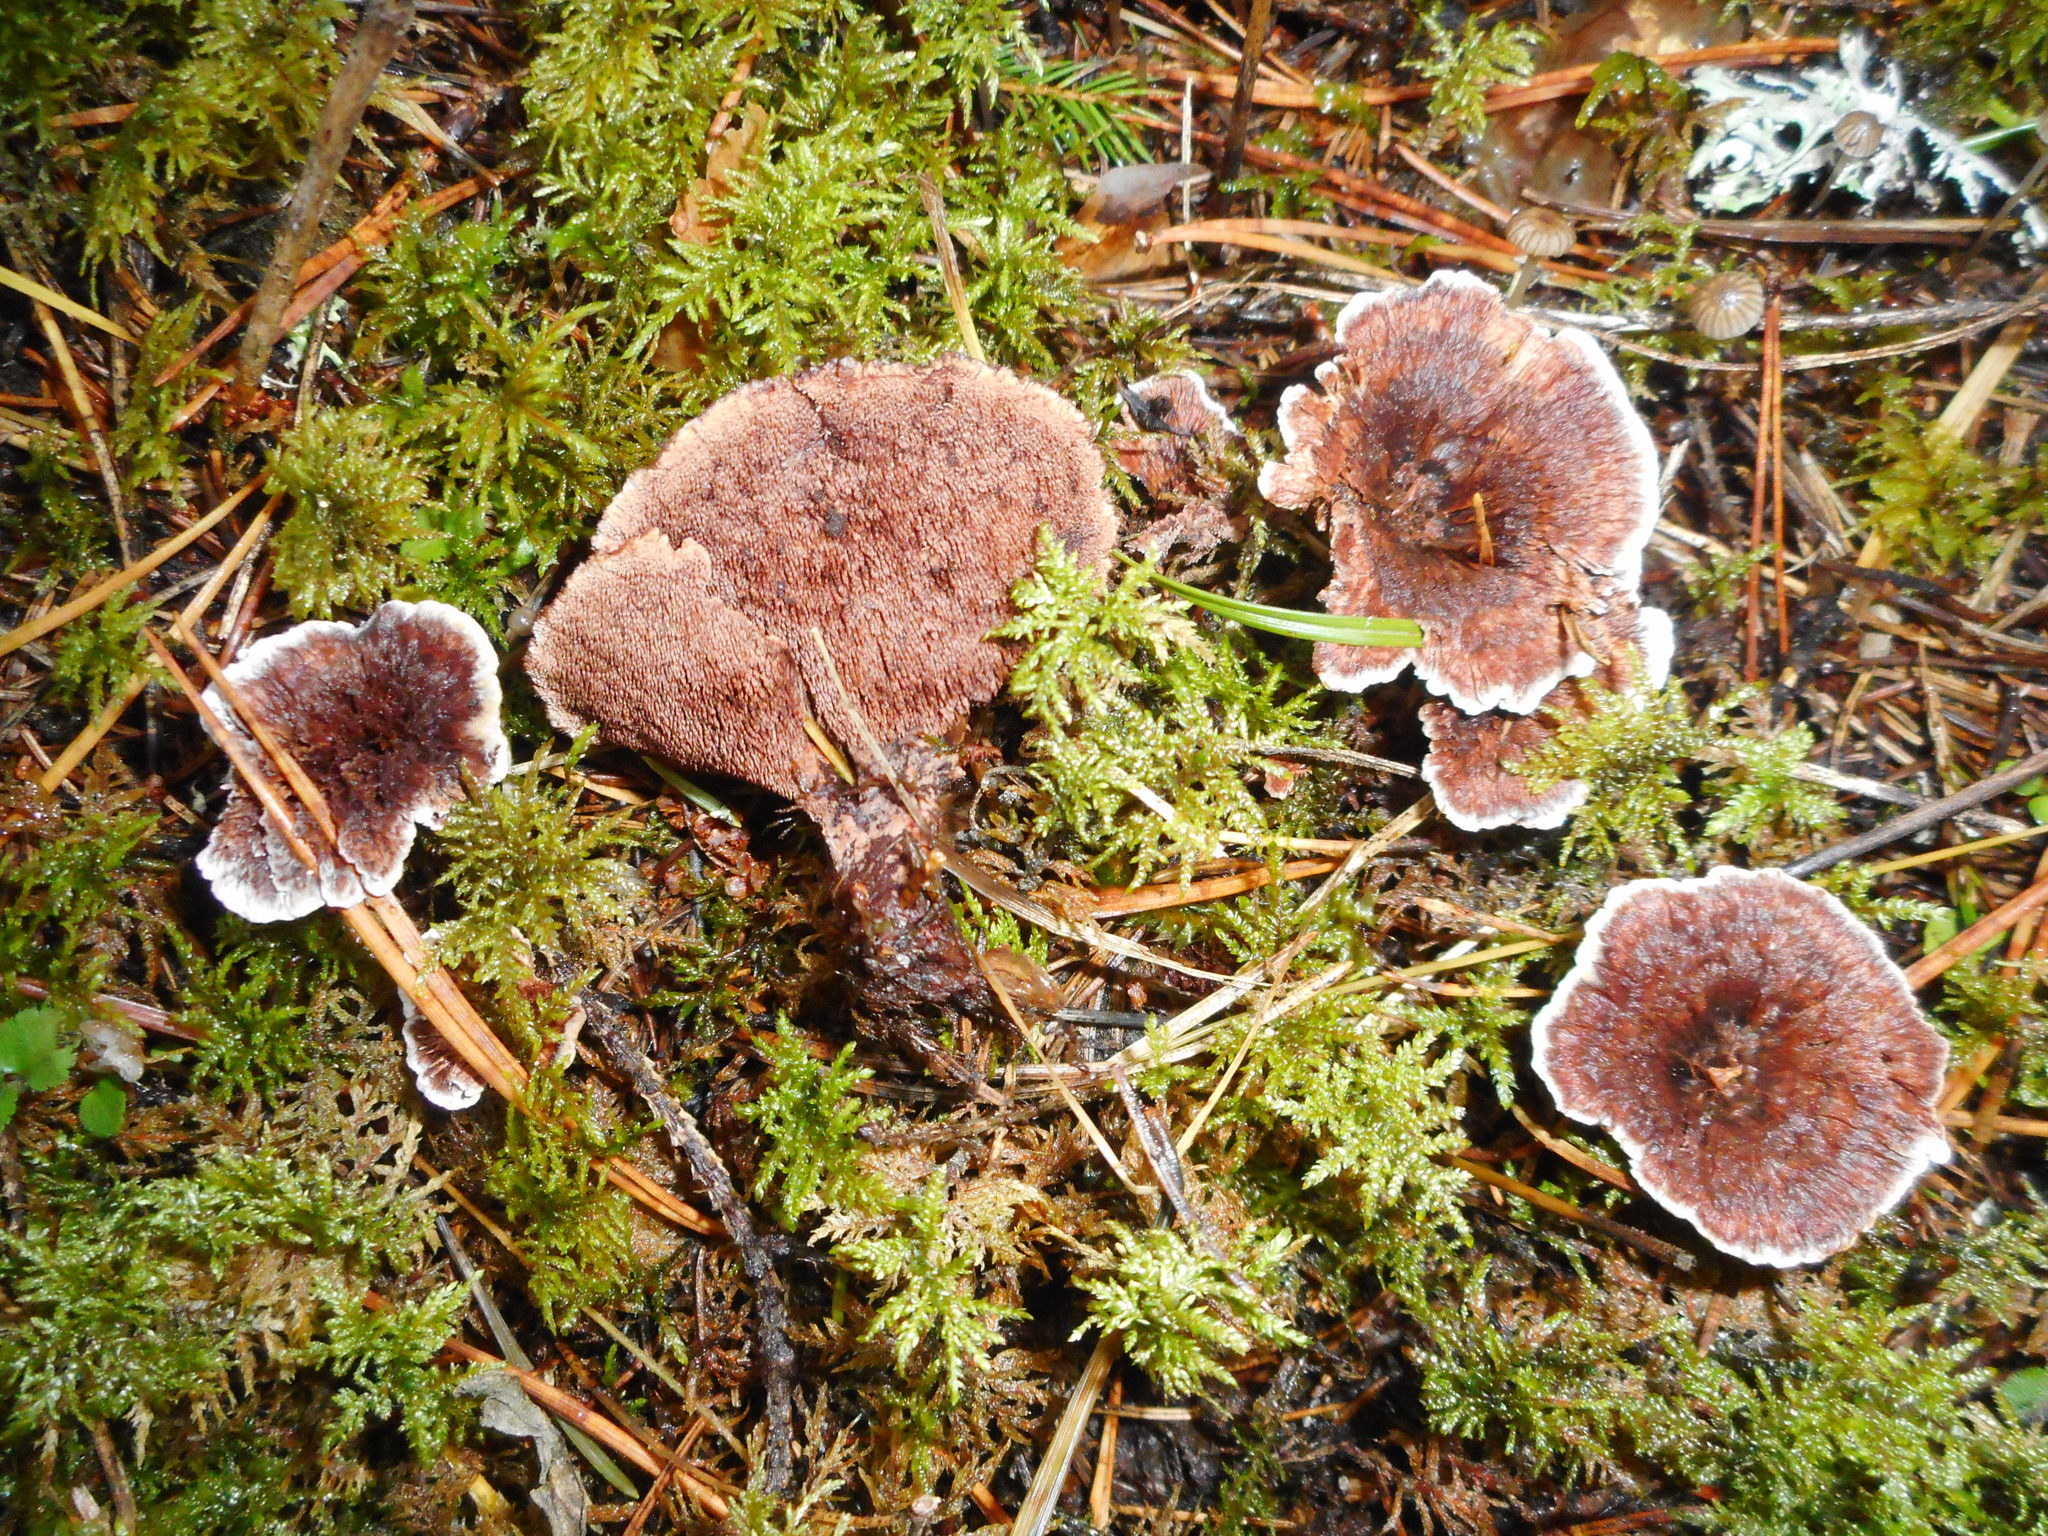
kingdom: Fungi
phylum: Basidiomycota
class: Agaricomycetes
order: Thelephorales
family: Thelephoraceae
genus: Phellodon
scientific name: Phellodon tomentosus
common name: Woolly tooth
